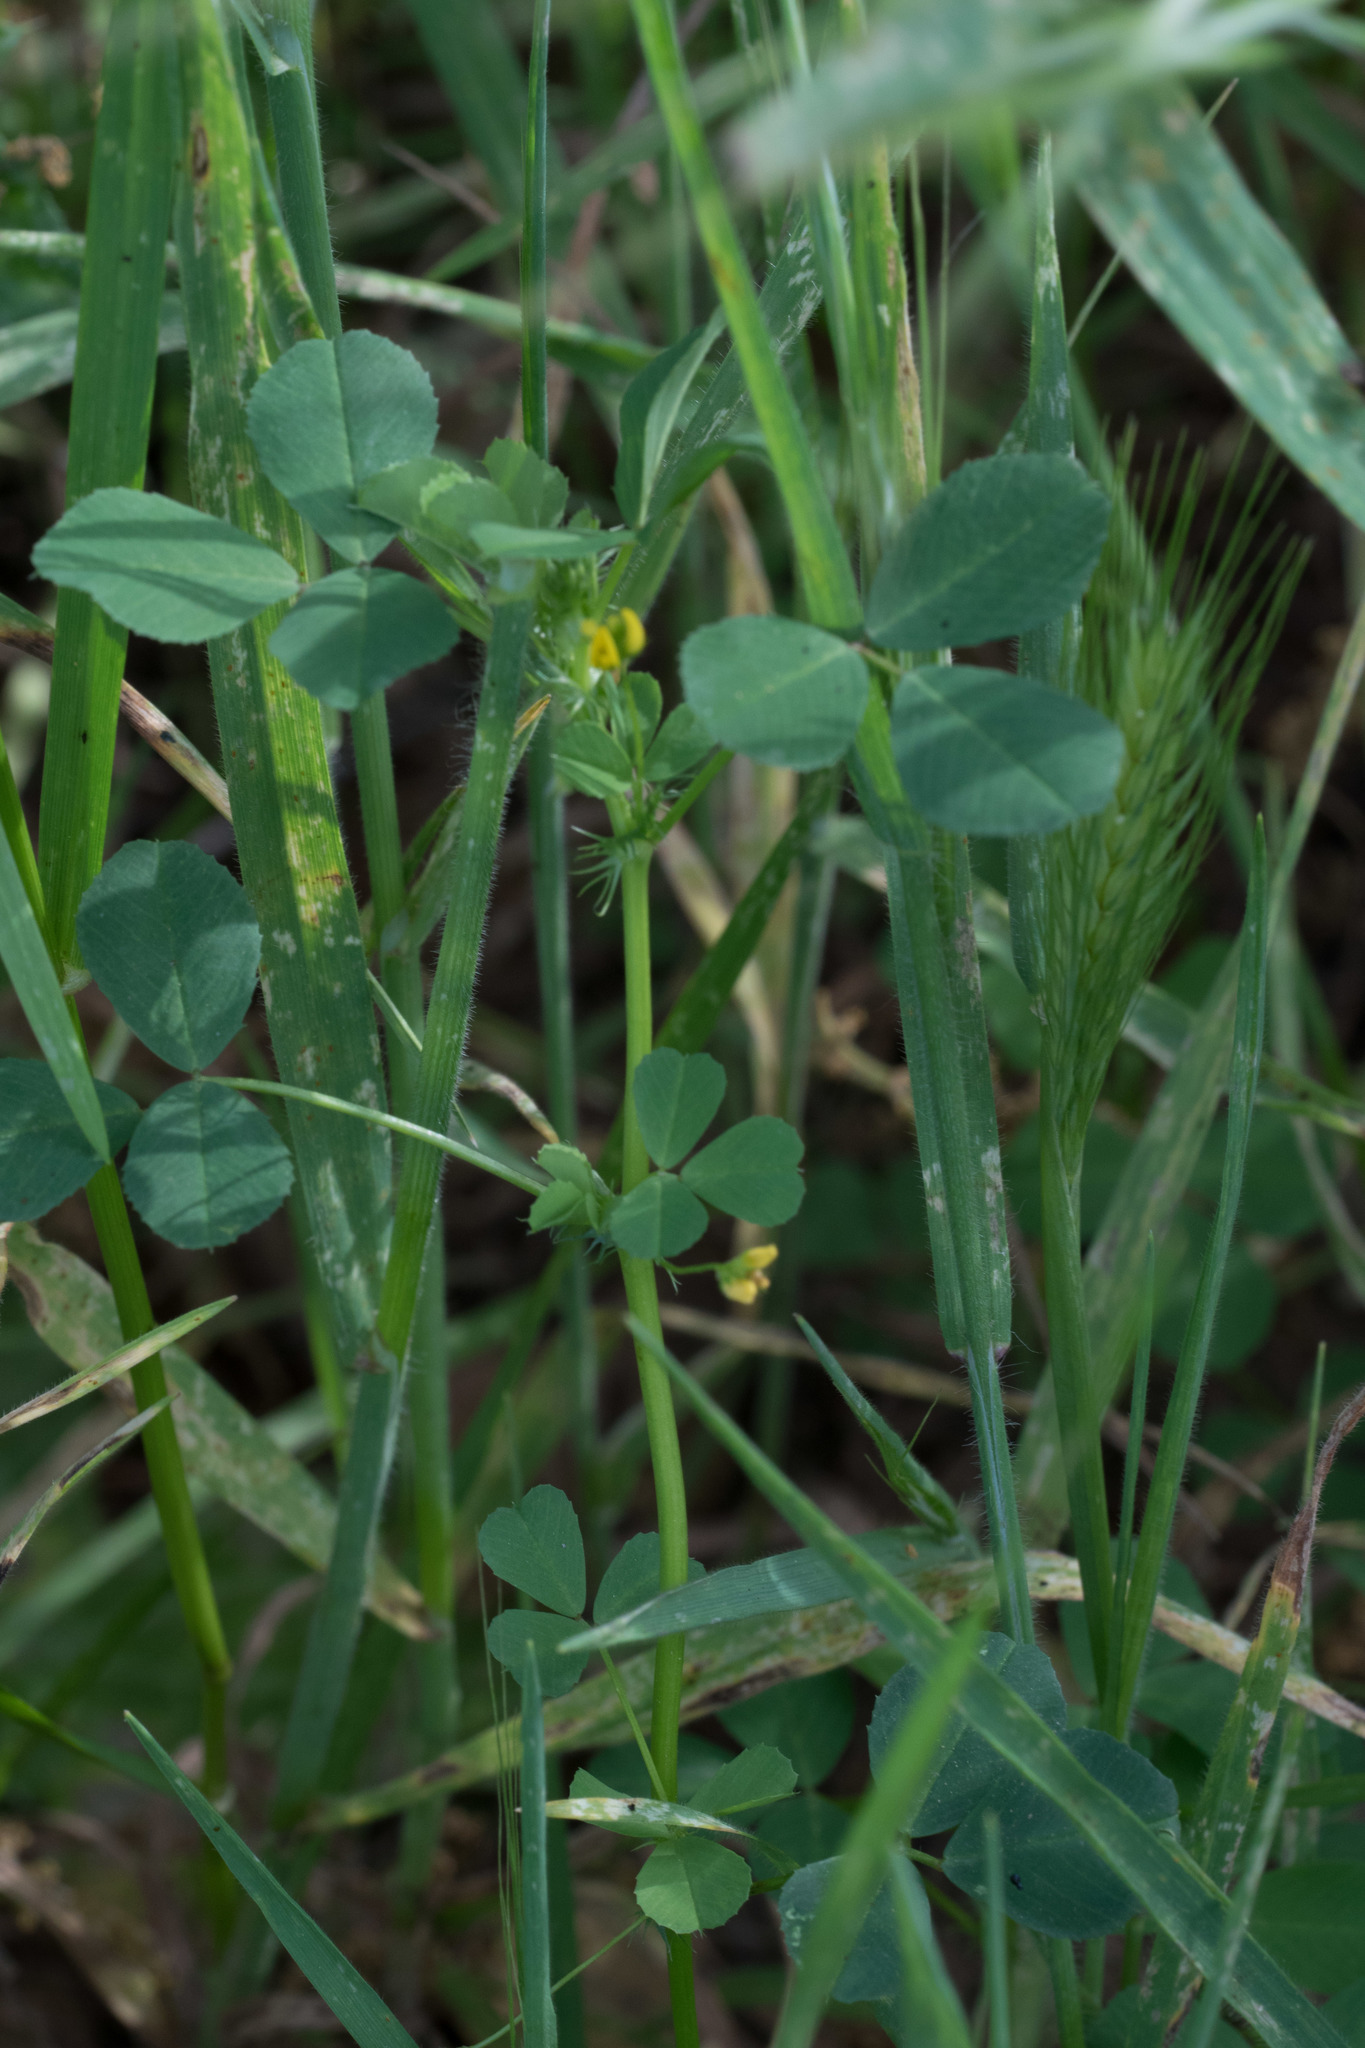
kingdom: Plantae
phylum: Tracheophyta
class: Magnoliopsida
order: Fabales
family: Fabaceae
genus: Medicago
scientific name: Medicago polymorpha
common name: Burclover
